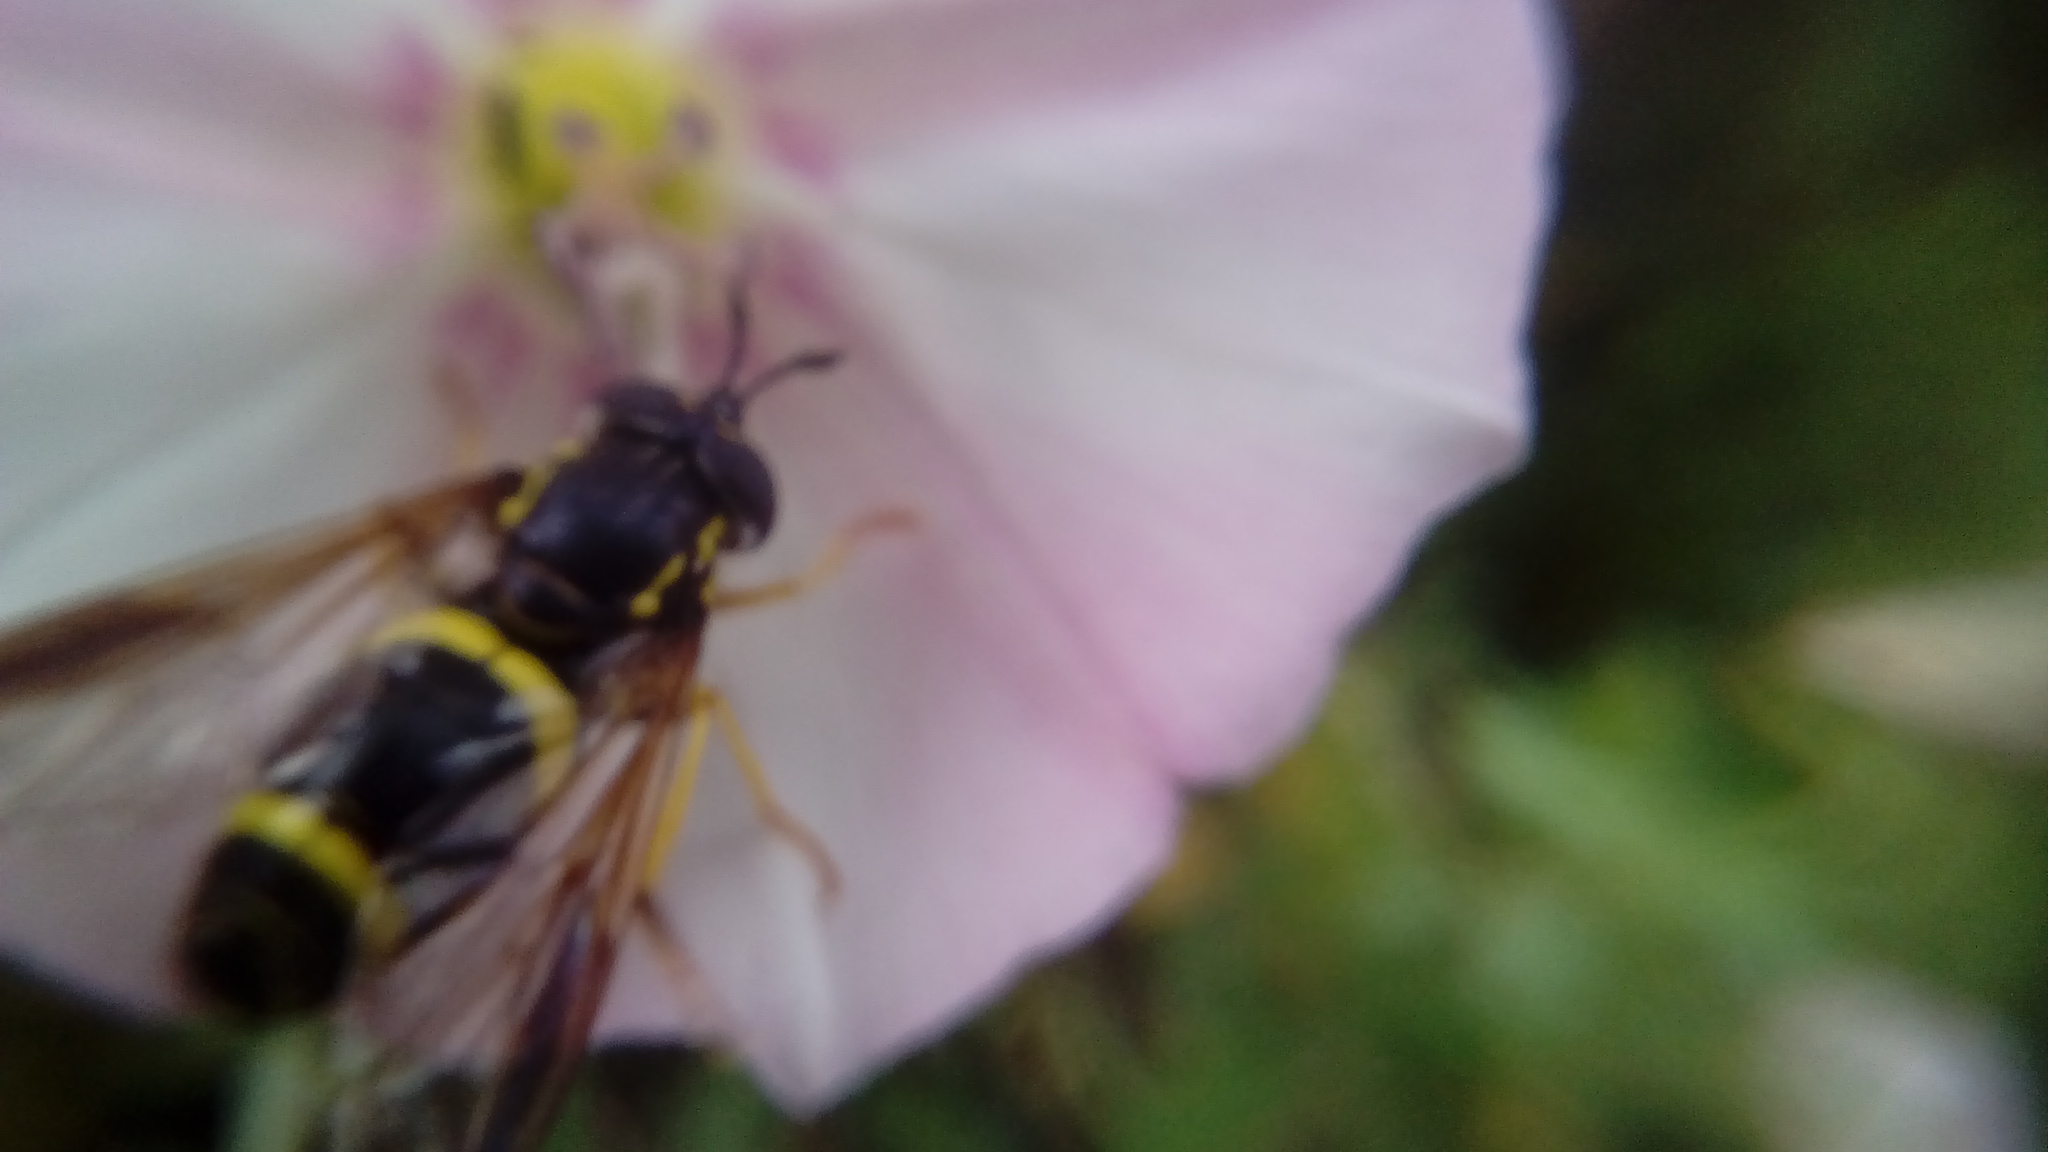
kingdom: Animalia
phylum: Arthropoda
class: Insecta
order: Diptera
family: Syrphidae
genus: Chrysotoxum
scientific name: Chrysotoxum bicincta
